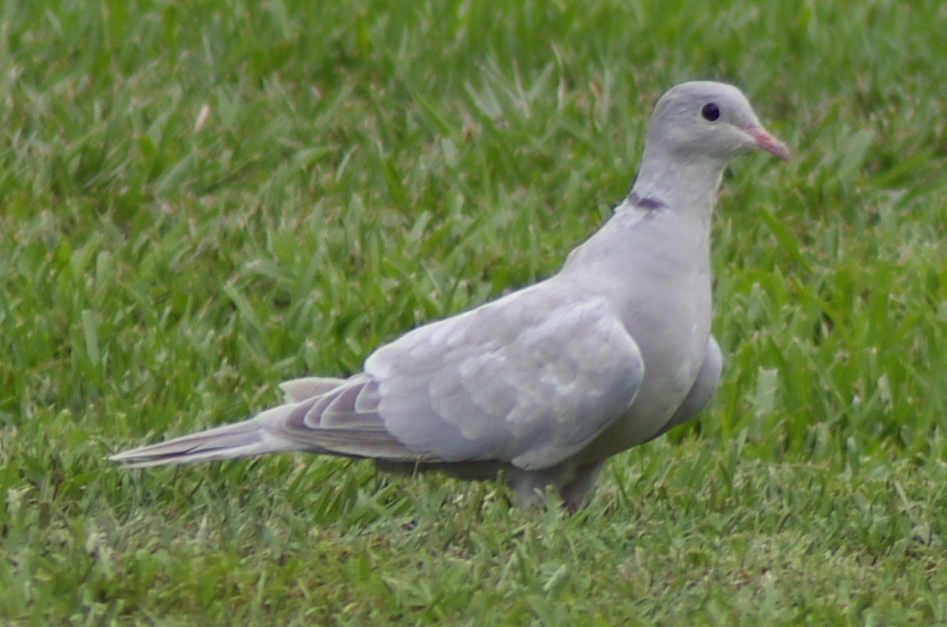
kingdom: Animalia
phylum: Chordata
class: Aves
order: Columbiformes
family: Columbidae
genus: Streptopelia
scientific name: Streptopelia decaocto
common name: Eurasian collared dove
